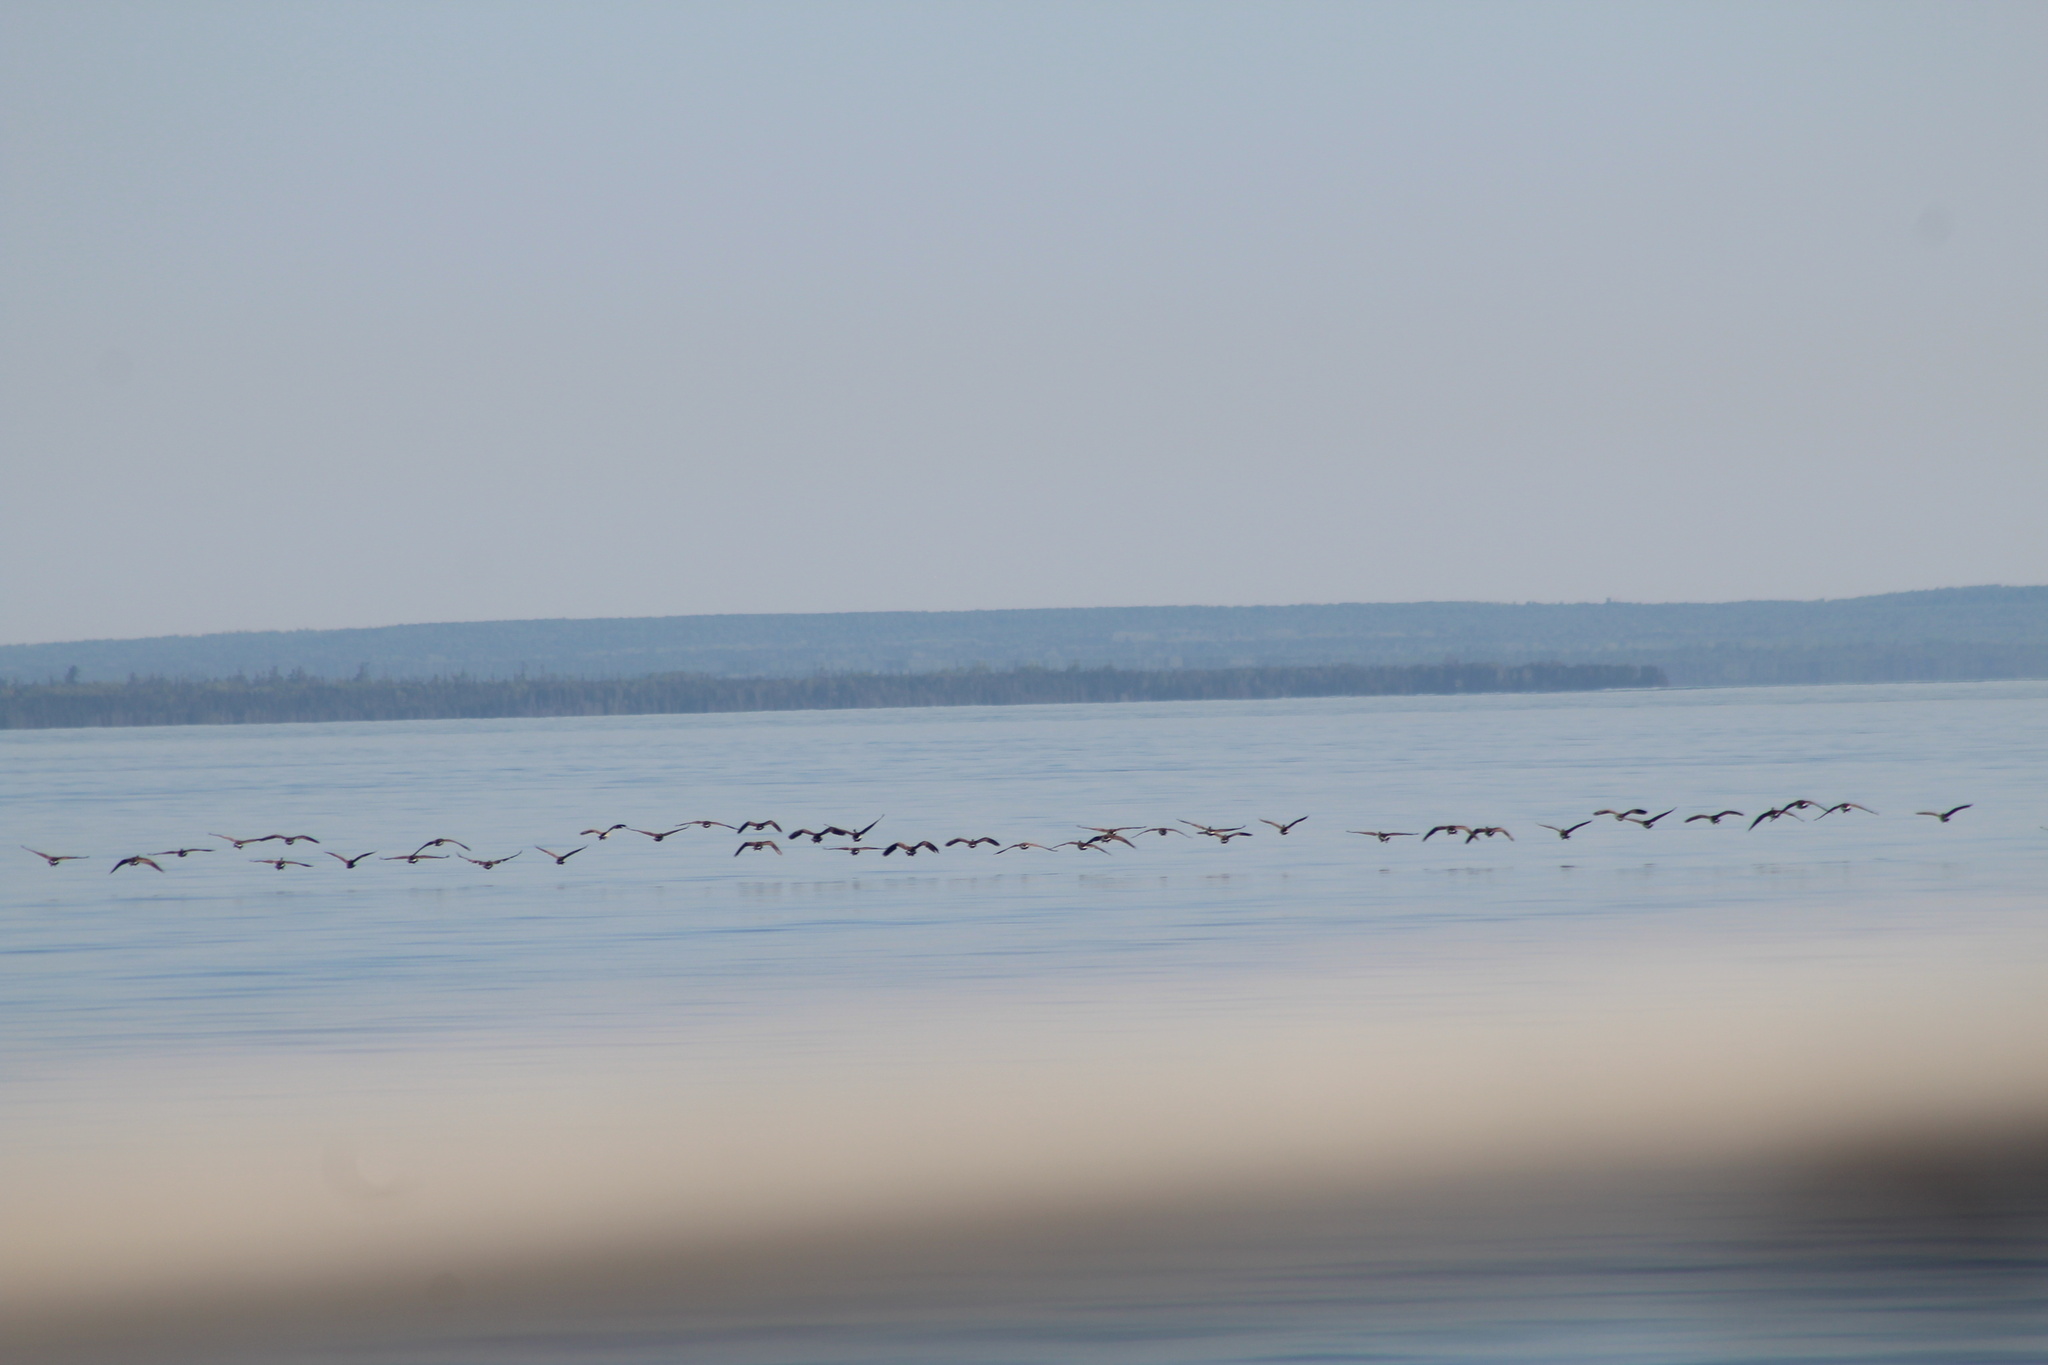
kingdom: Animalia
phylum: Chordata
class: Aves
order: Anseriformes
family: Anatidae
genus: Branta
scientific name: Branta canadensis
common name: Canada goose
